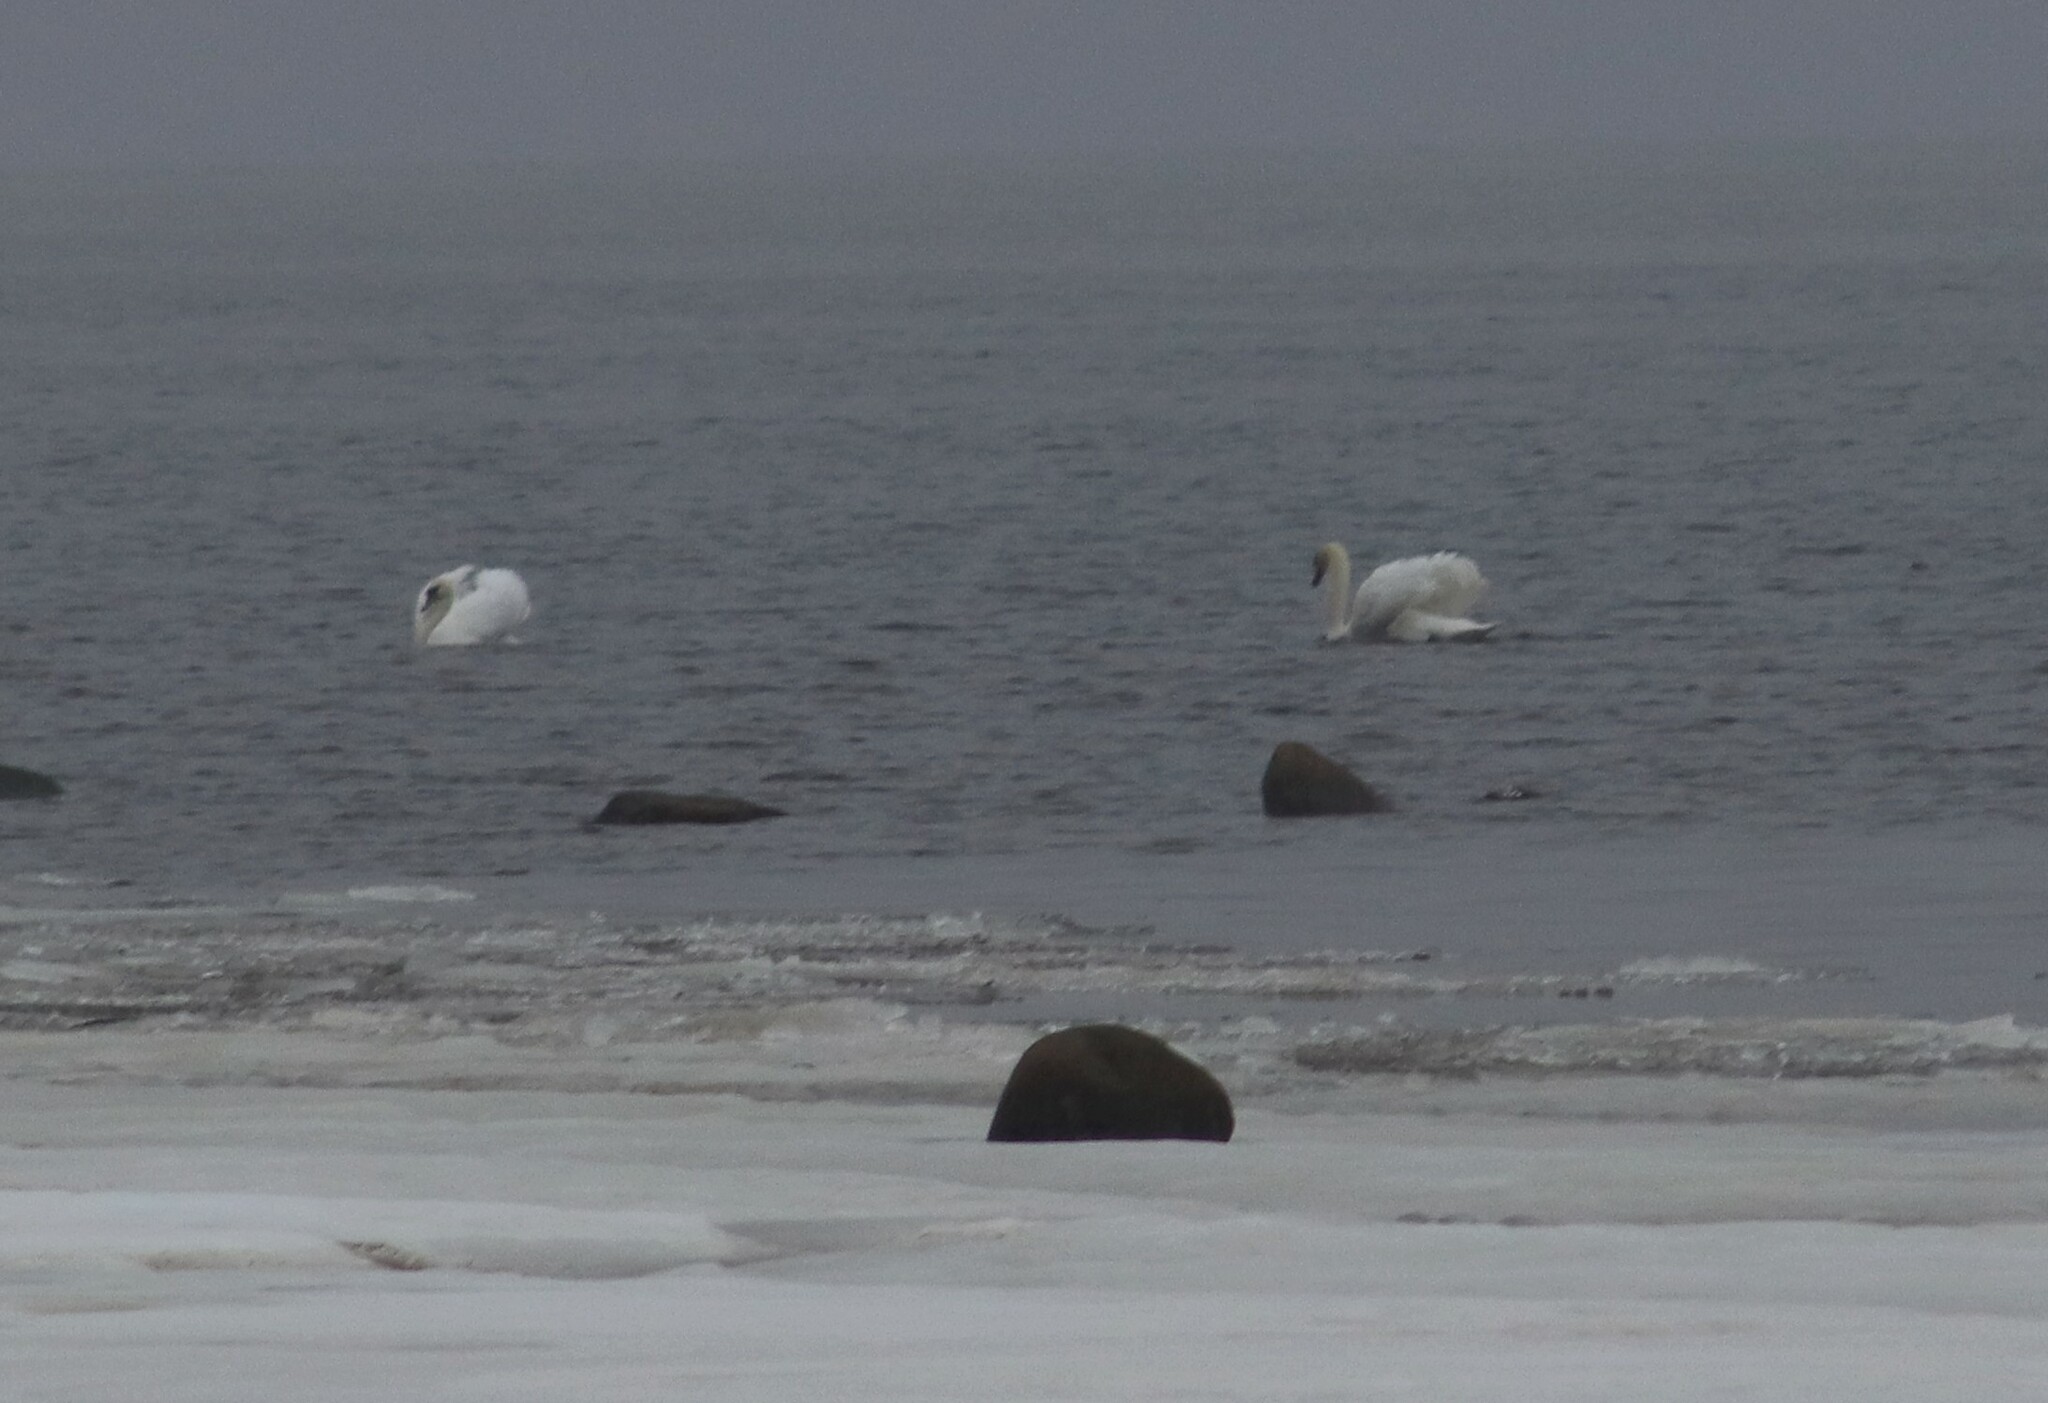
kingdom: Animalia
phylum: Chordata
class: Aves
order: Anseriformes
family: Anatidae
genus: Cygnus
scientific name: Cygnus olor
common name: Mute swan
